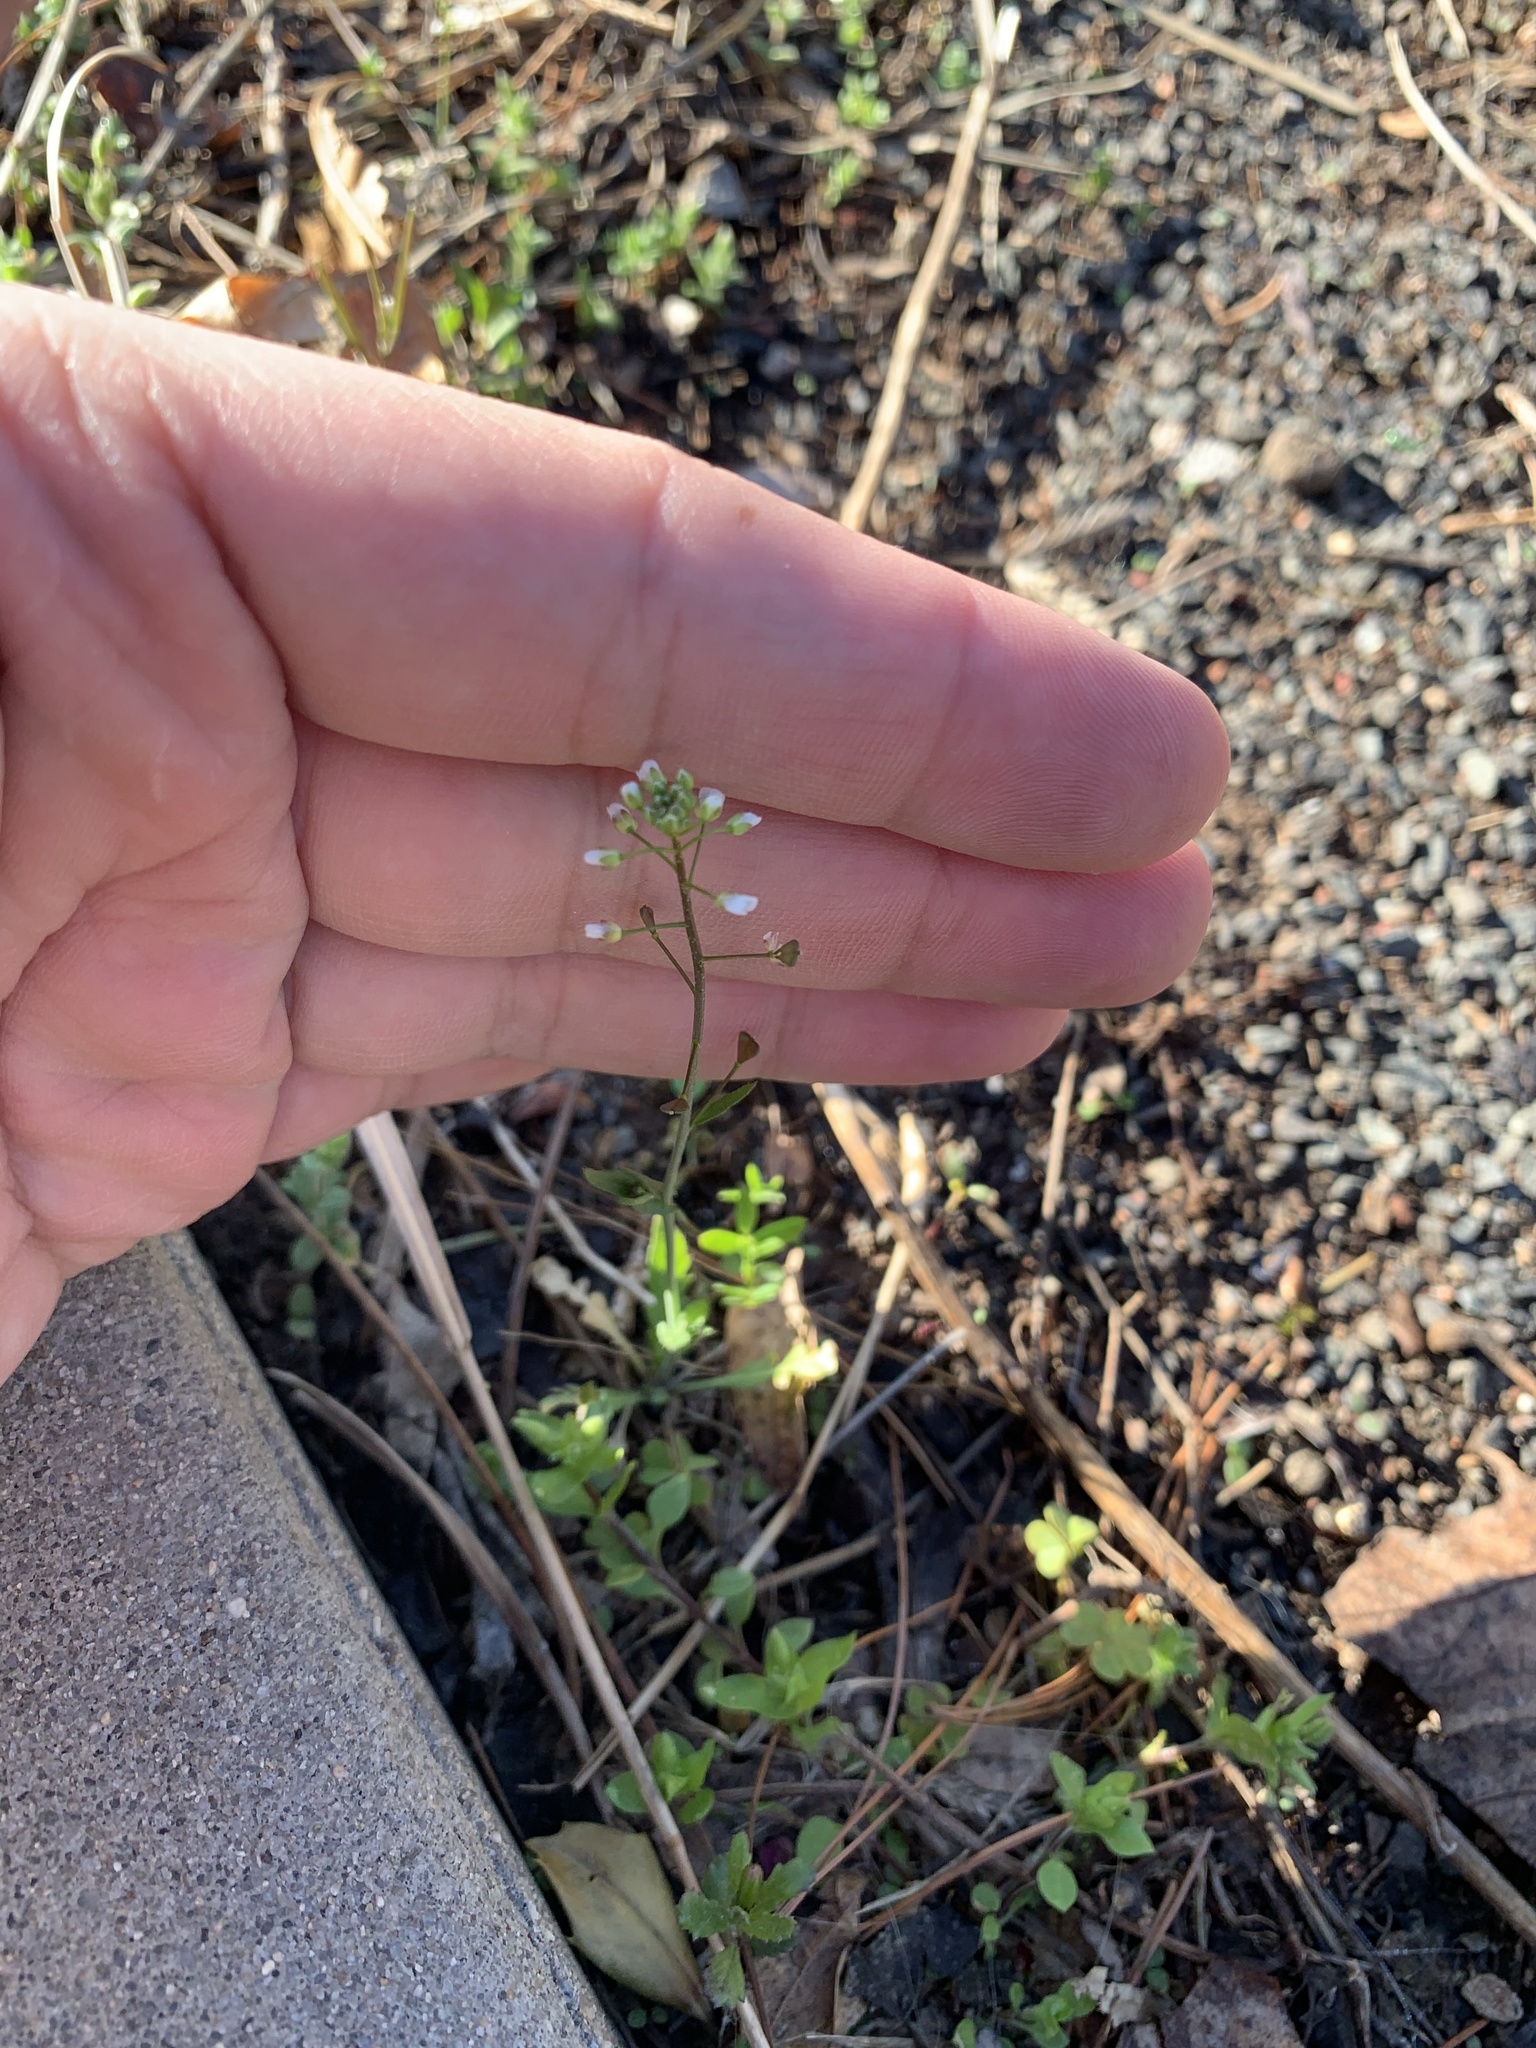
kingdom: Plantae
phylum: Tracheophyta
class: Magnoliopsida
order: Brassicales
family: Brassicaceae
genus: Capsella
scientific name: Capsella bursa-pastoris
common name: Shepherd's purse
